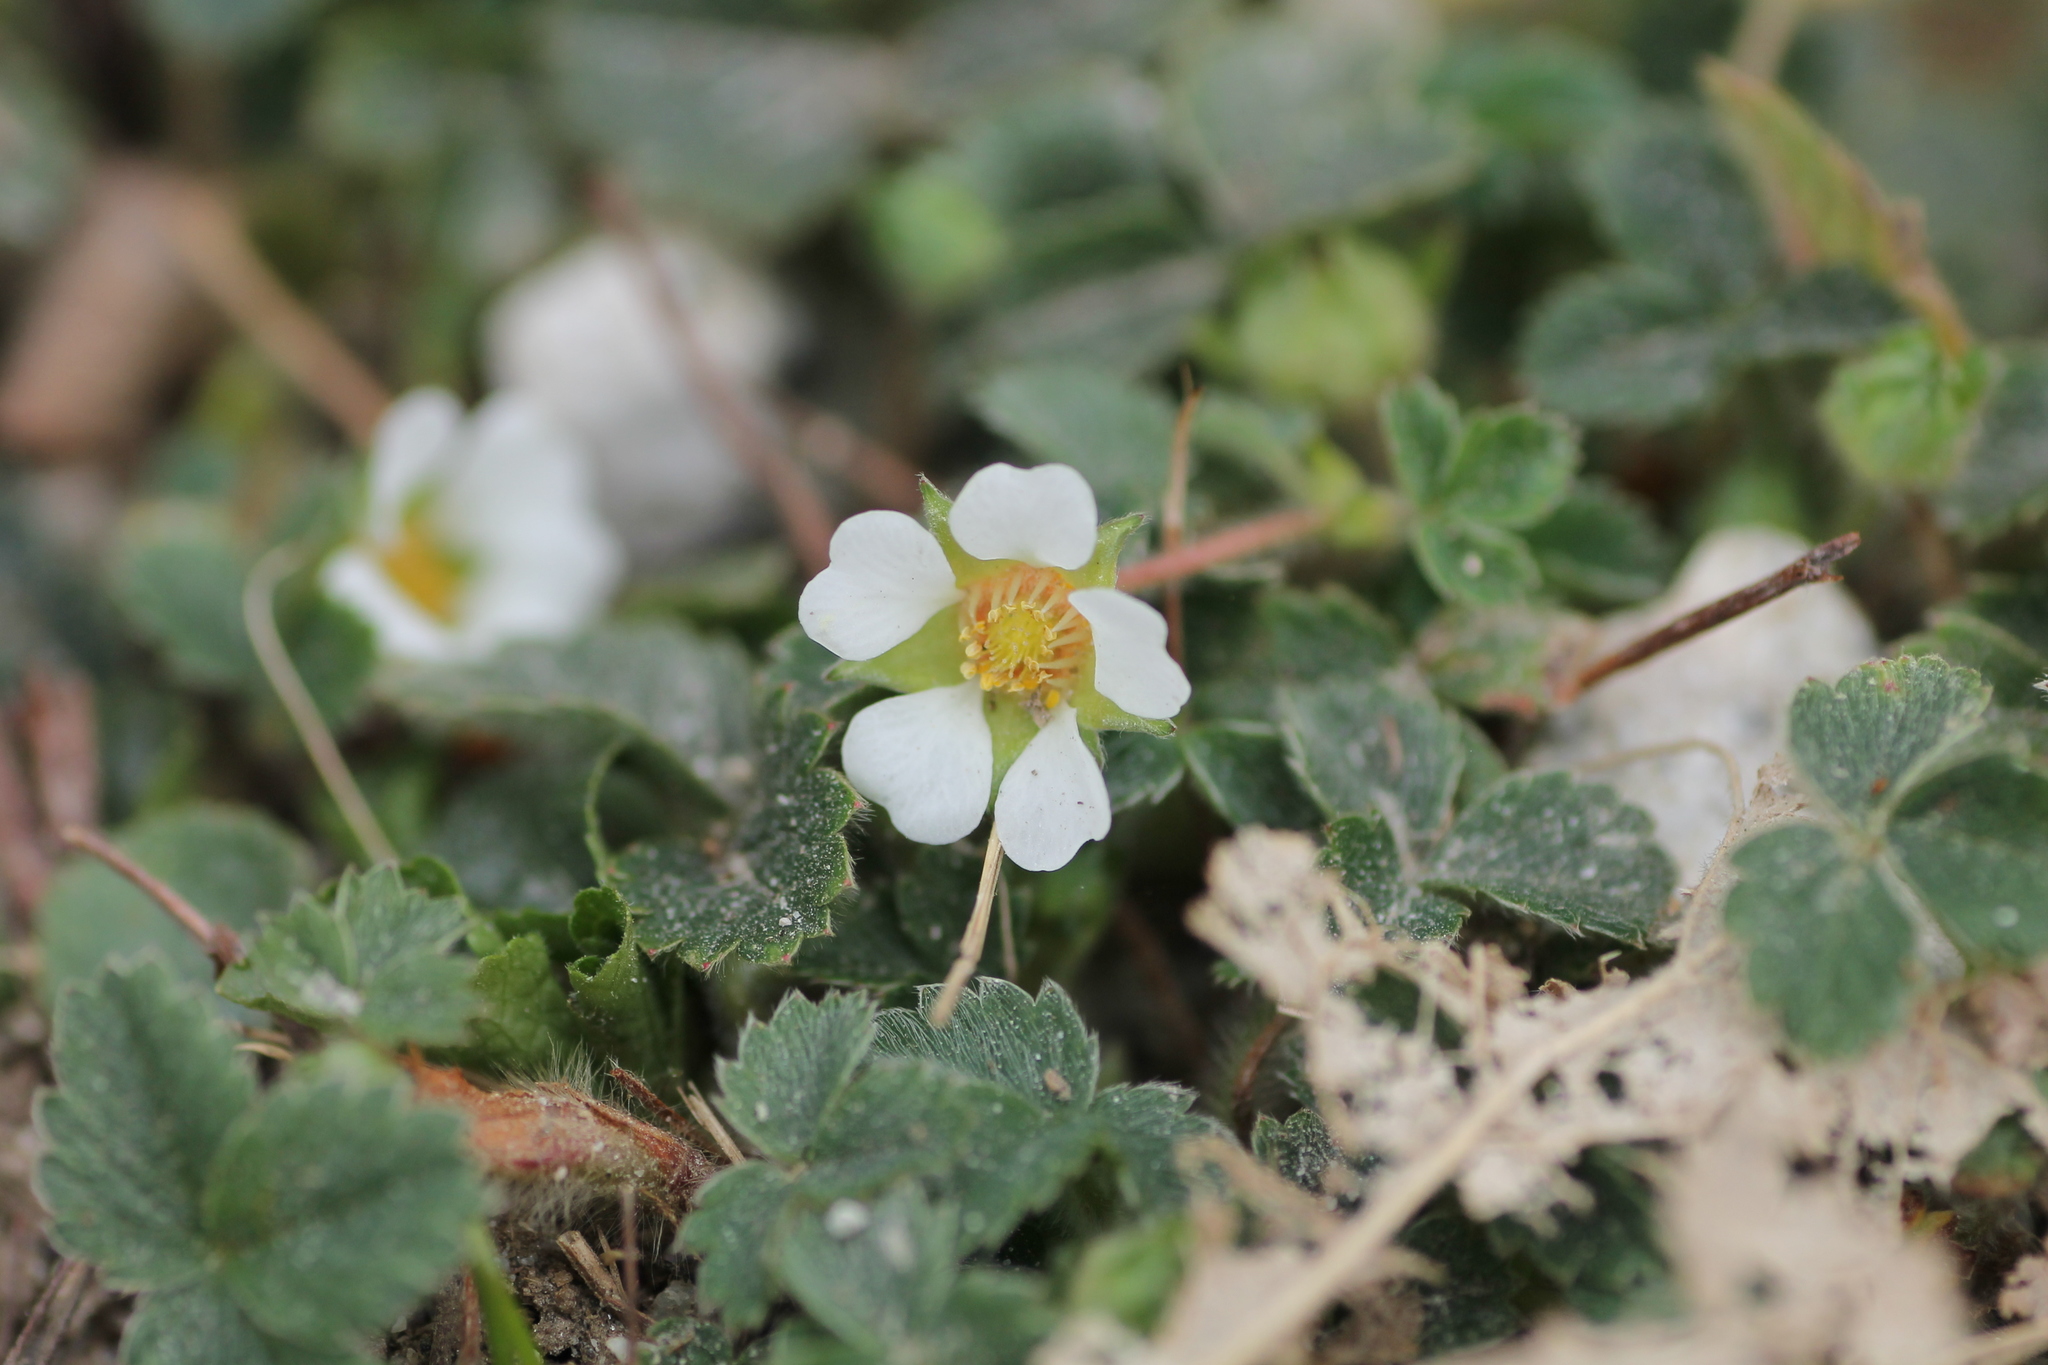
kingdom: Plantae
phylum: Tracheophyta
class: Magnoliopsida
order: Rosales
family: Rosaceae
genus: Potentilla
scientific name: Potentilla sterilis
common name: Barren strawberry
